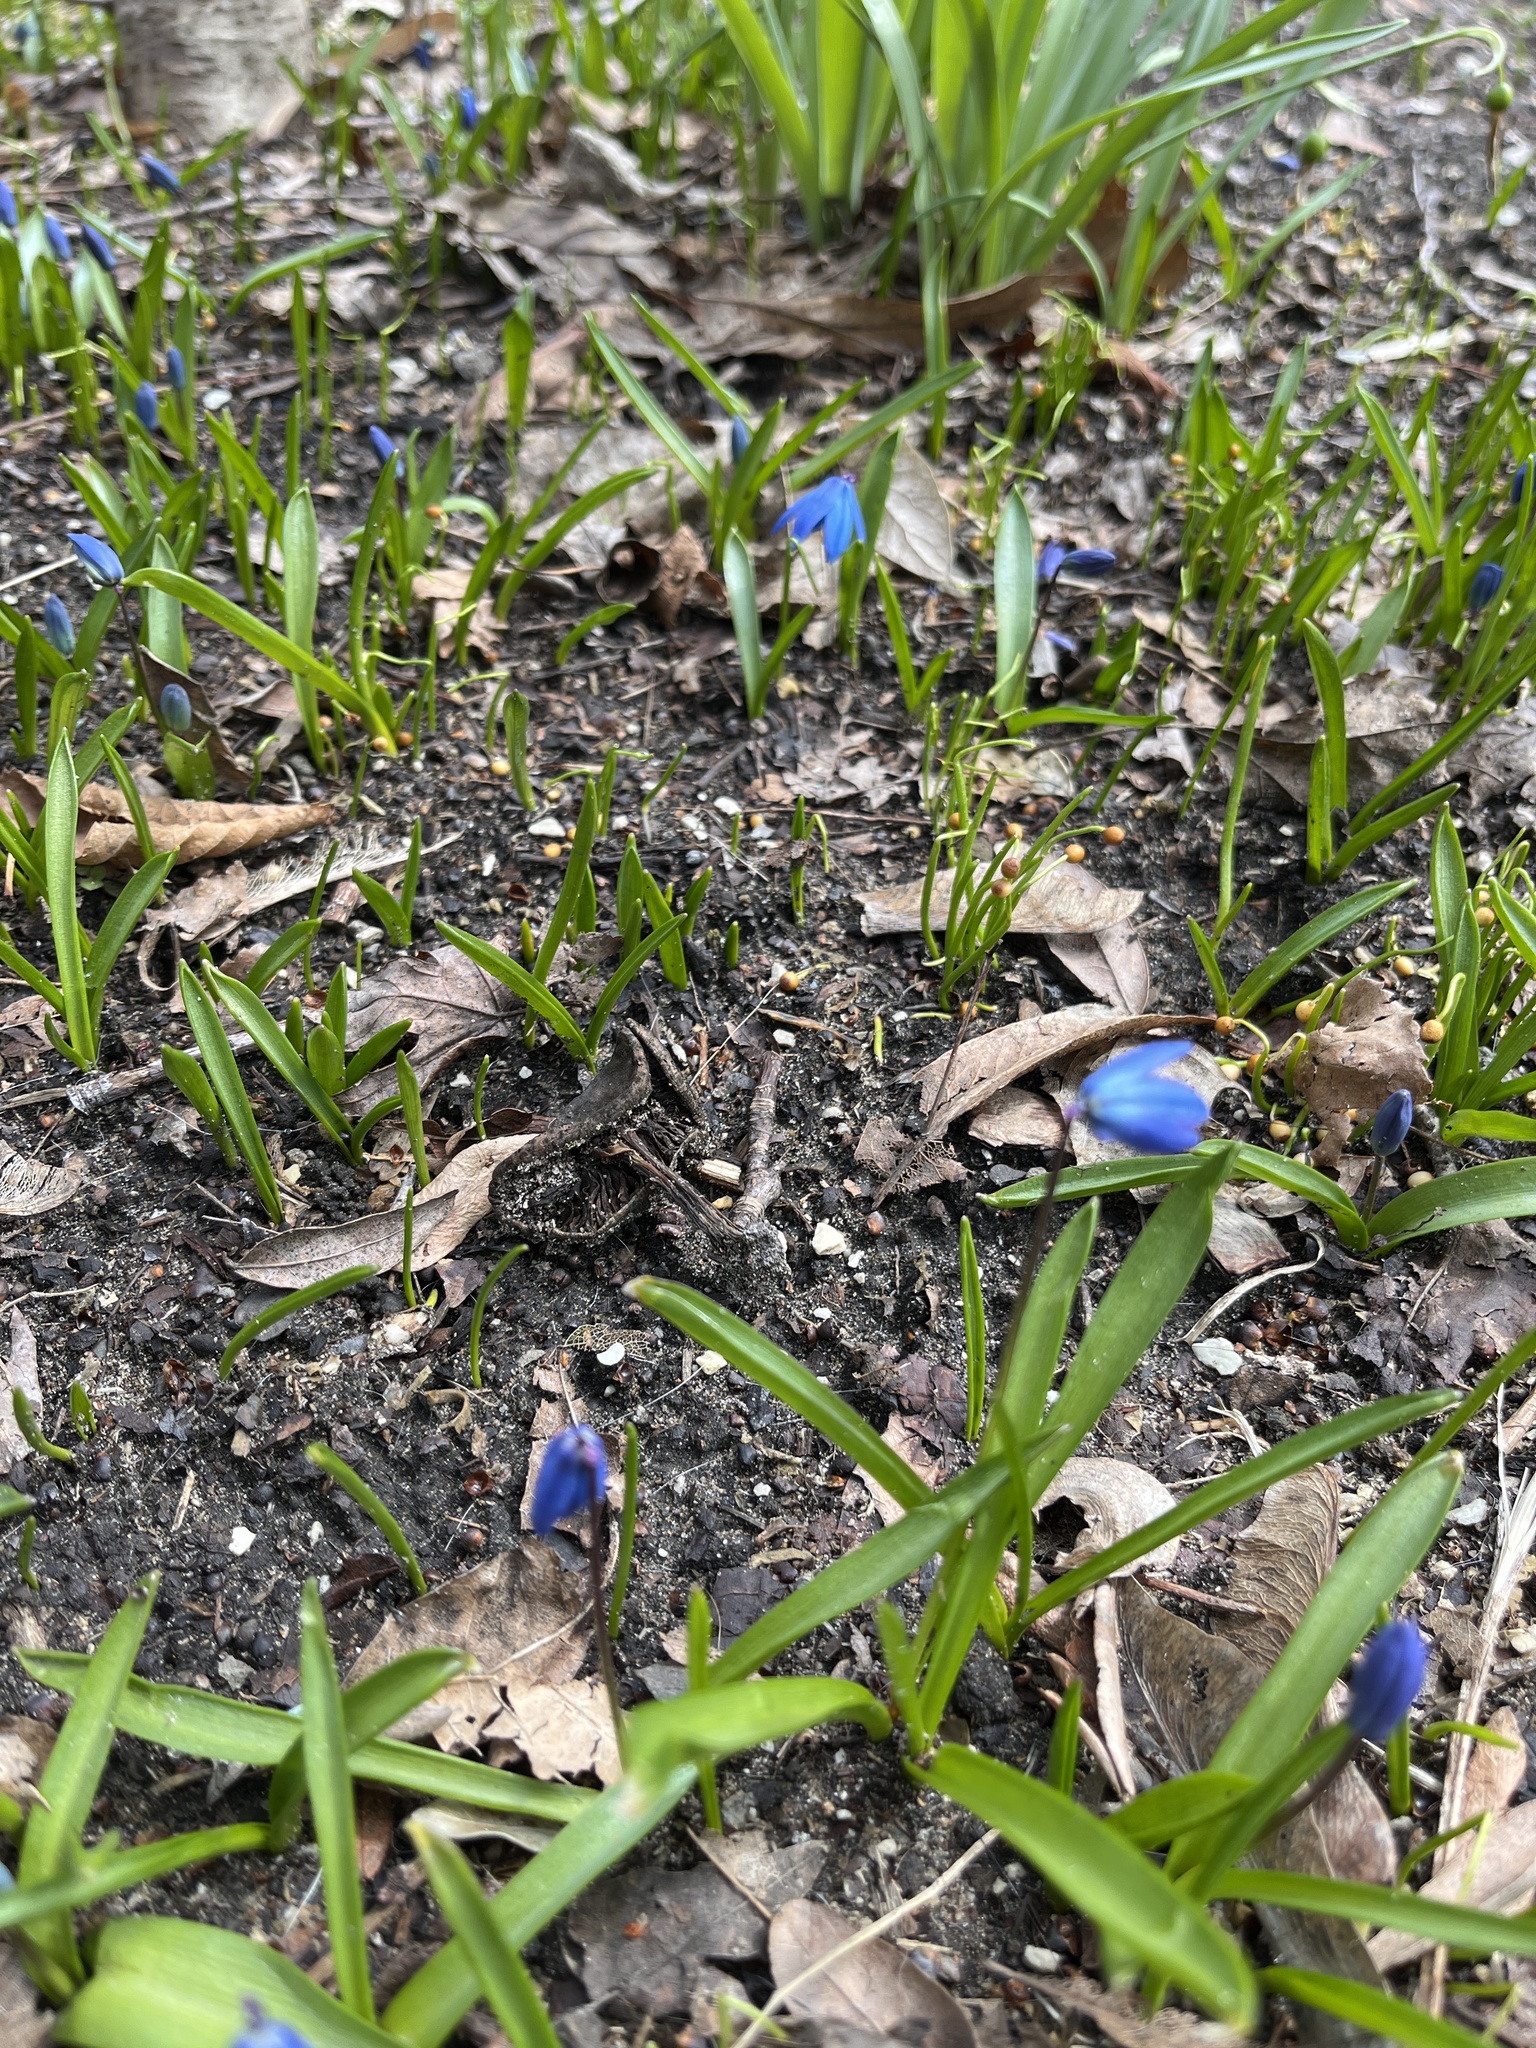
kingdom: Plantae
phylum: Tracheophyta
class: Liliopsida
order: Asparagales
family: Asparagaceae
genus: Scilla
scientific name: Scilla siberica
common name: Siberian squill
